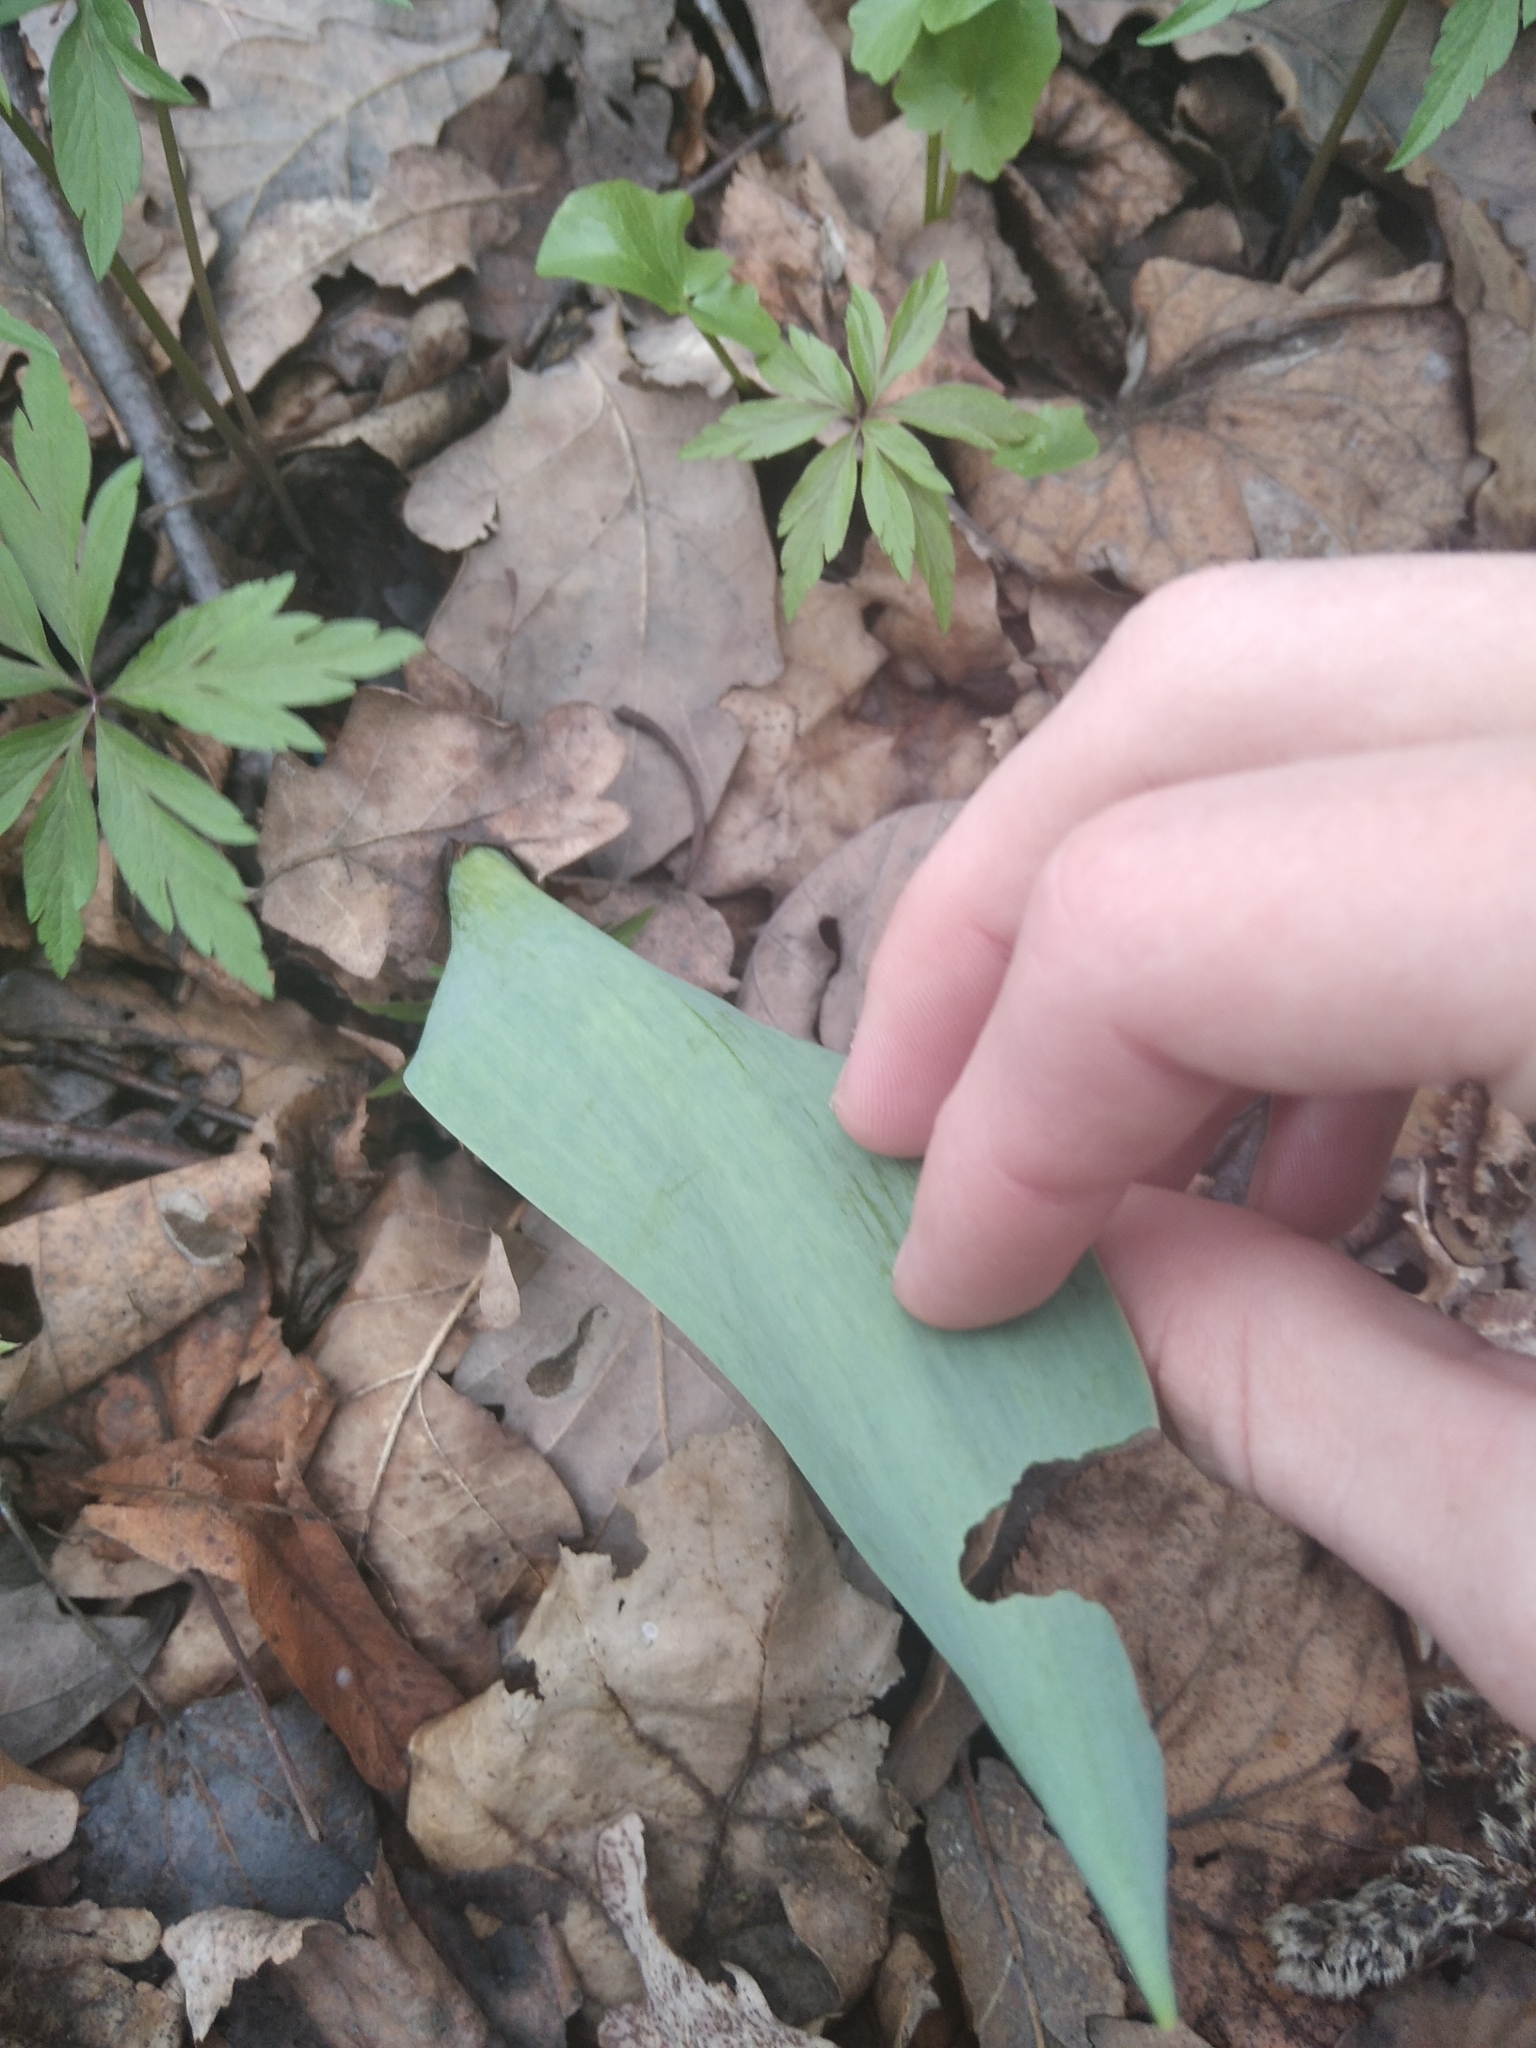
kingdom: Plantae
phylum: Tracheophyta
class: Liliopsida
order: Liliales
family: Liliaceae
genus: Tulipa
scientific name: Tulipa gesneriana
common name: Garden tulip
